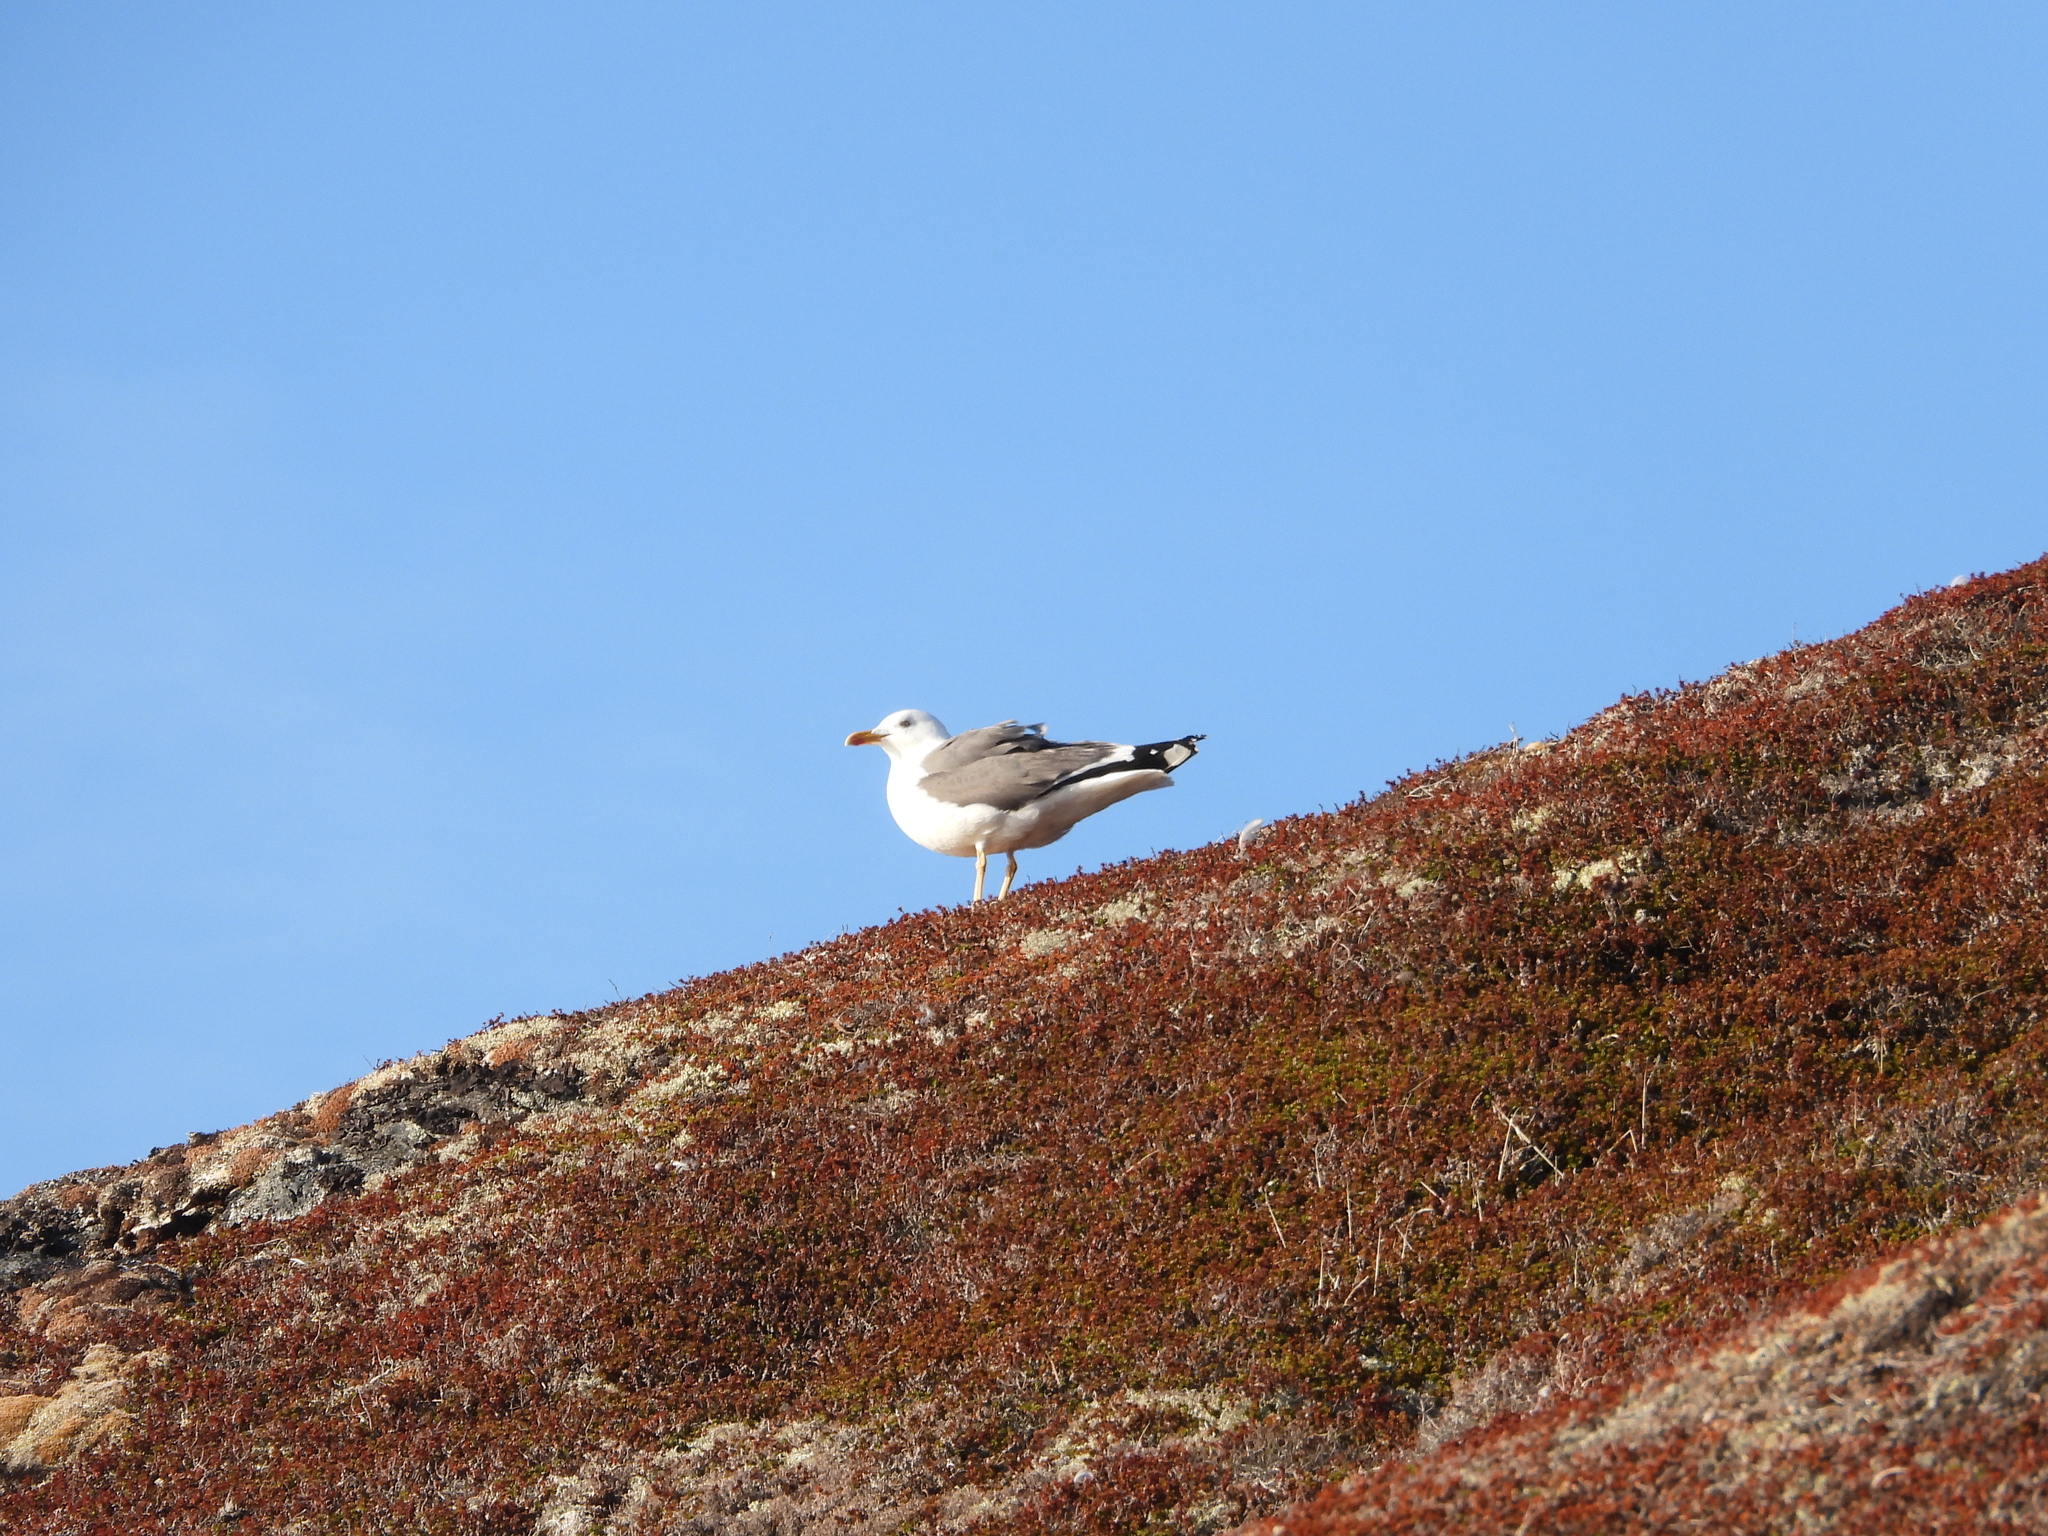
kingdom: Animalia
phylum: Chordata
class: Aves
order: Charadriiformes
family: Laridae
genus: Larus
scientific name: Larus fuscus
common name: Lesser black-backed gull
